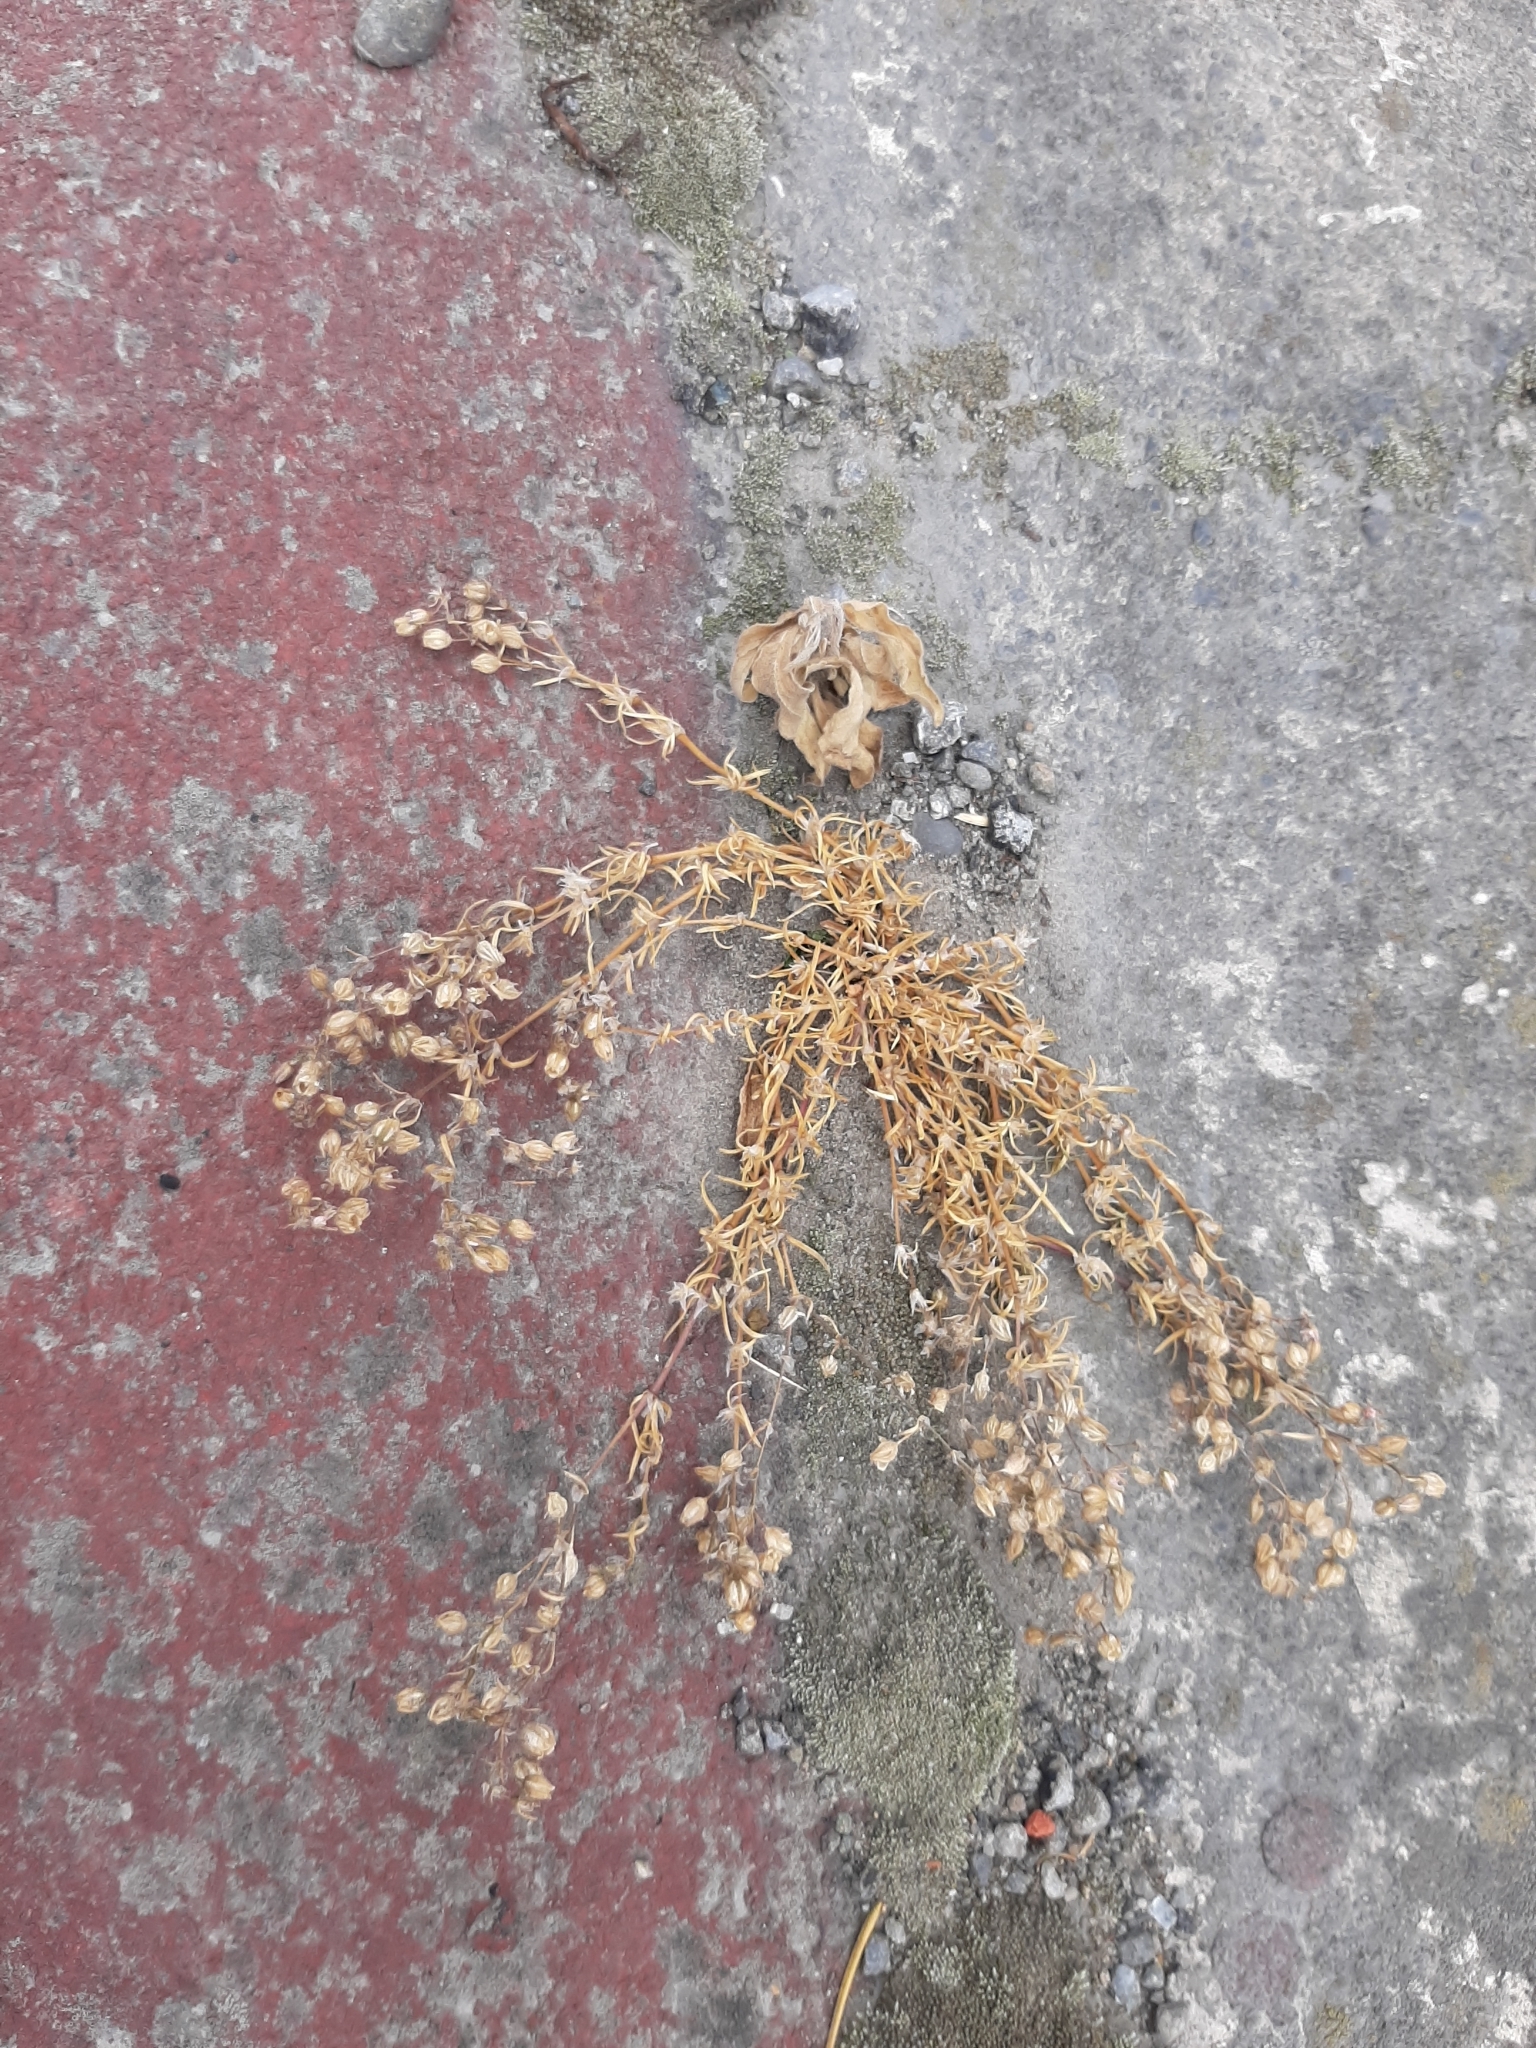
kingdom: Plantae
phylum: Tracheophyta
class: Magnoliopsida
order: Caryophyllales
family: Caryophyllaceae
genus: Spergularia
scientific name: Spergularia rubra
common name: Red sand-spurrey
